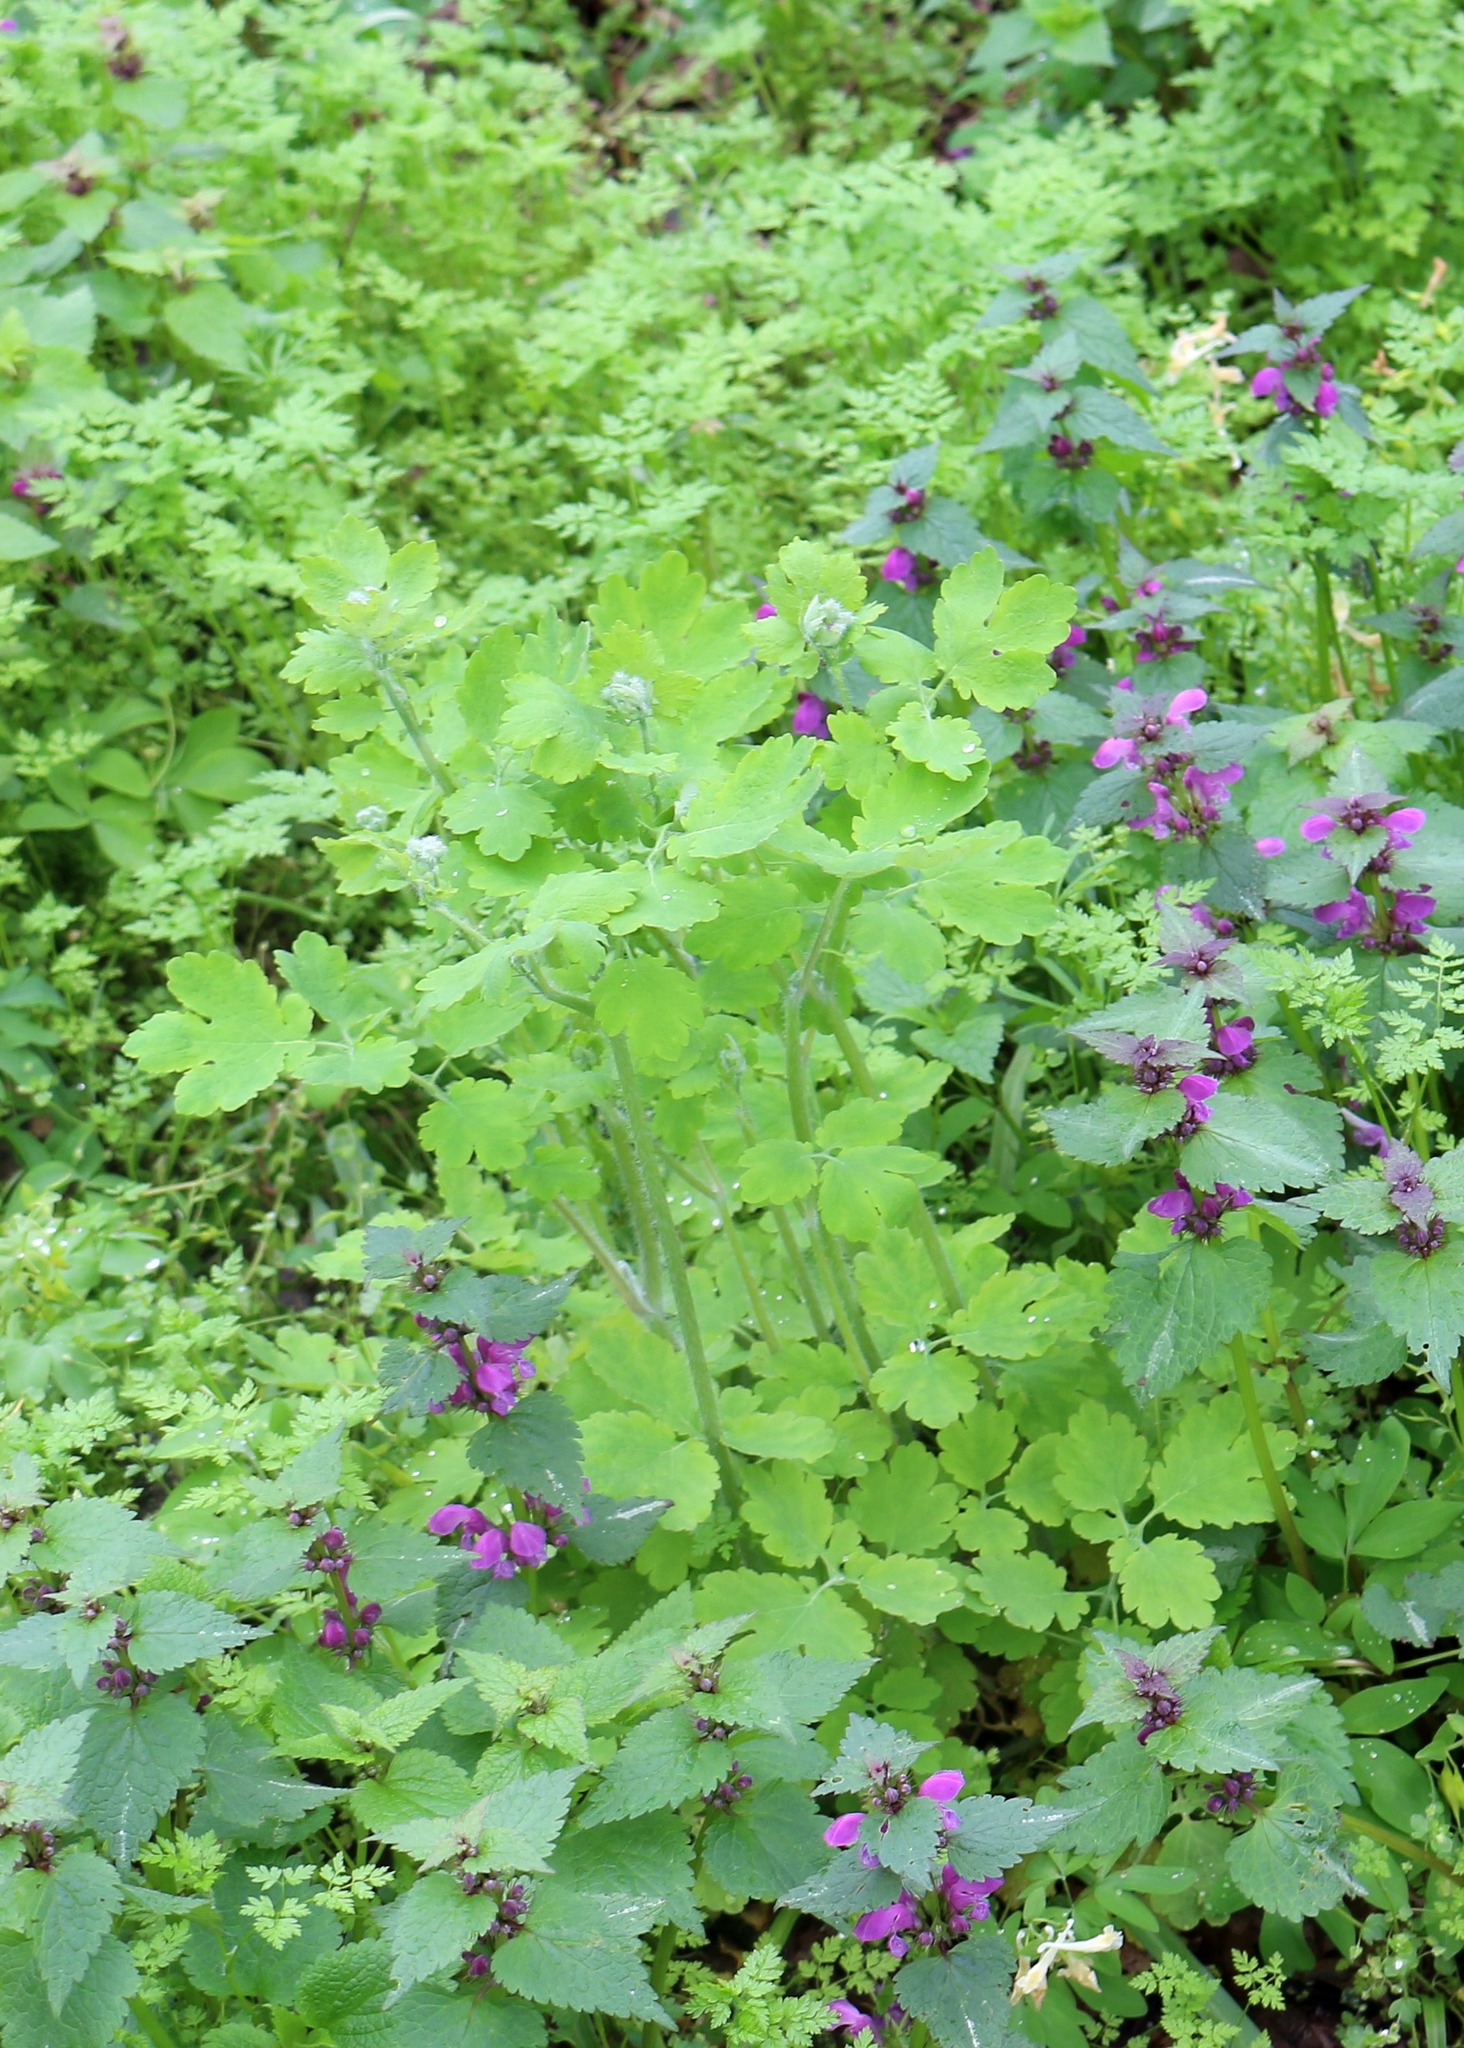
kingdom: Plantae
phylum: Tracheophyta
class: Magnoliopsida
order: Ranunculales
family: Papaveraceae
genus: Chelidonium
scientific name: Chelidonium majus
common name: Greater celandine
